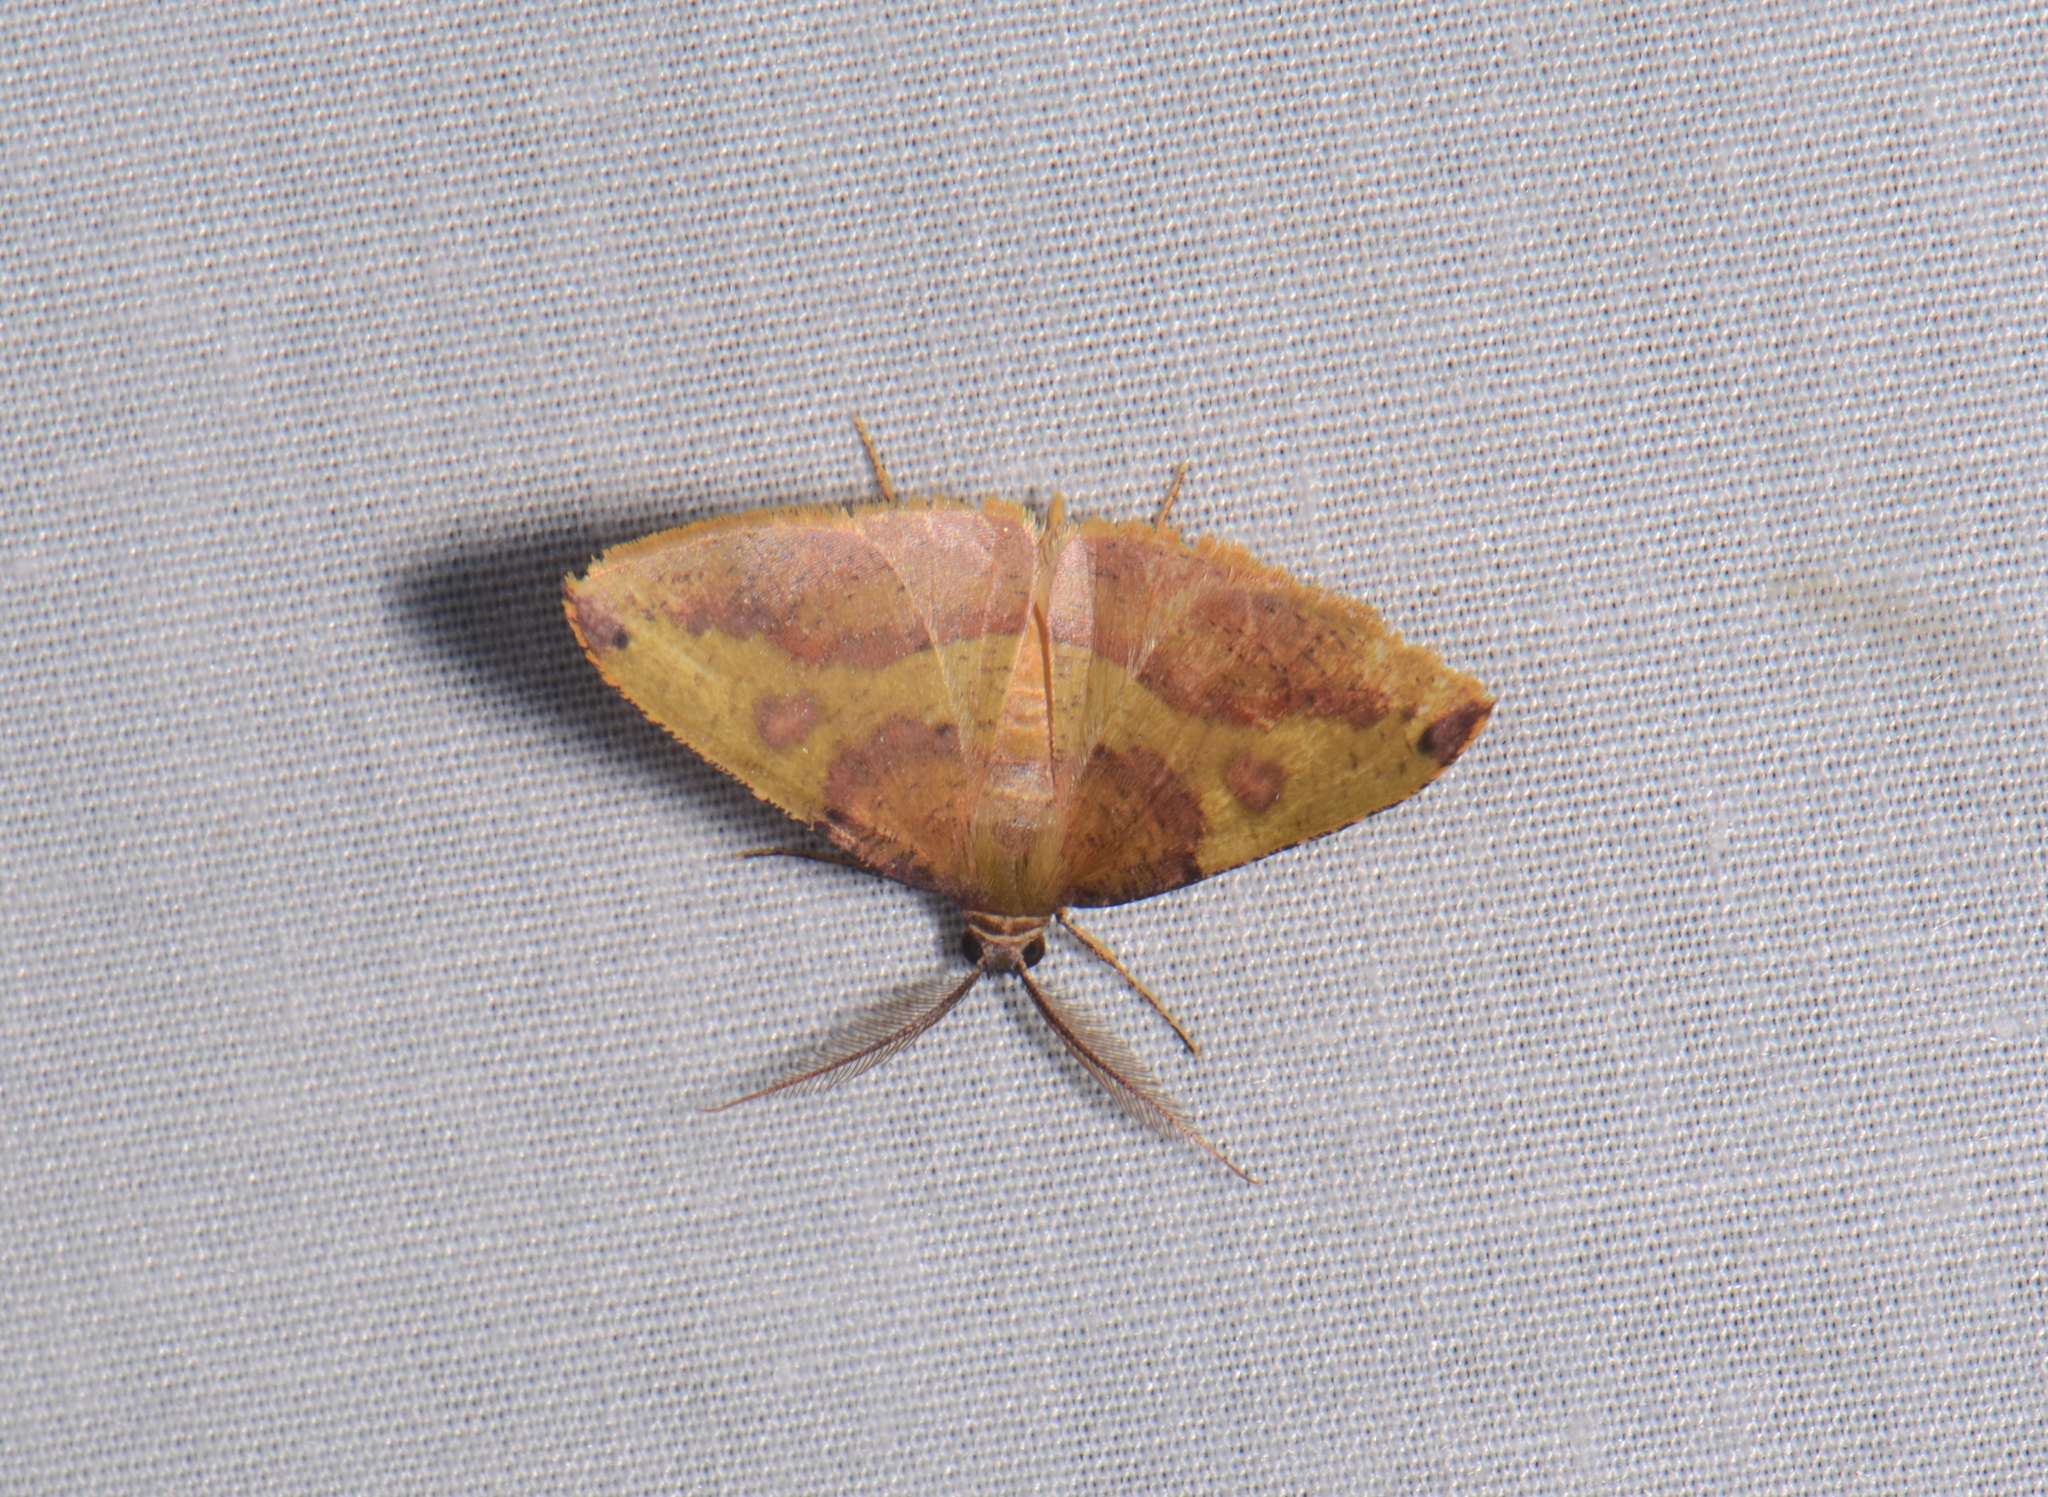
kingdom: Animalia
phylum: Arthropoda
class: Insecta
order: Lepidoptera
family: Geometridae
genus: Heterolocha
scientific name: Heterolocha polymorphoides
